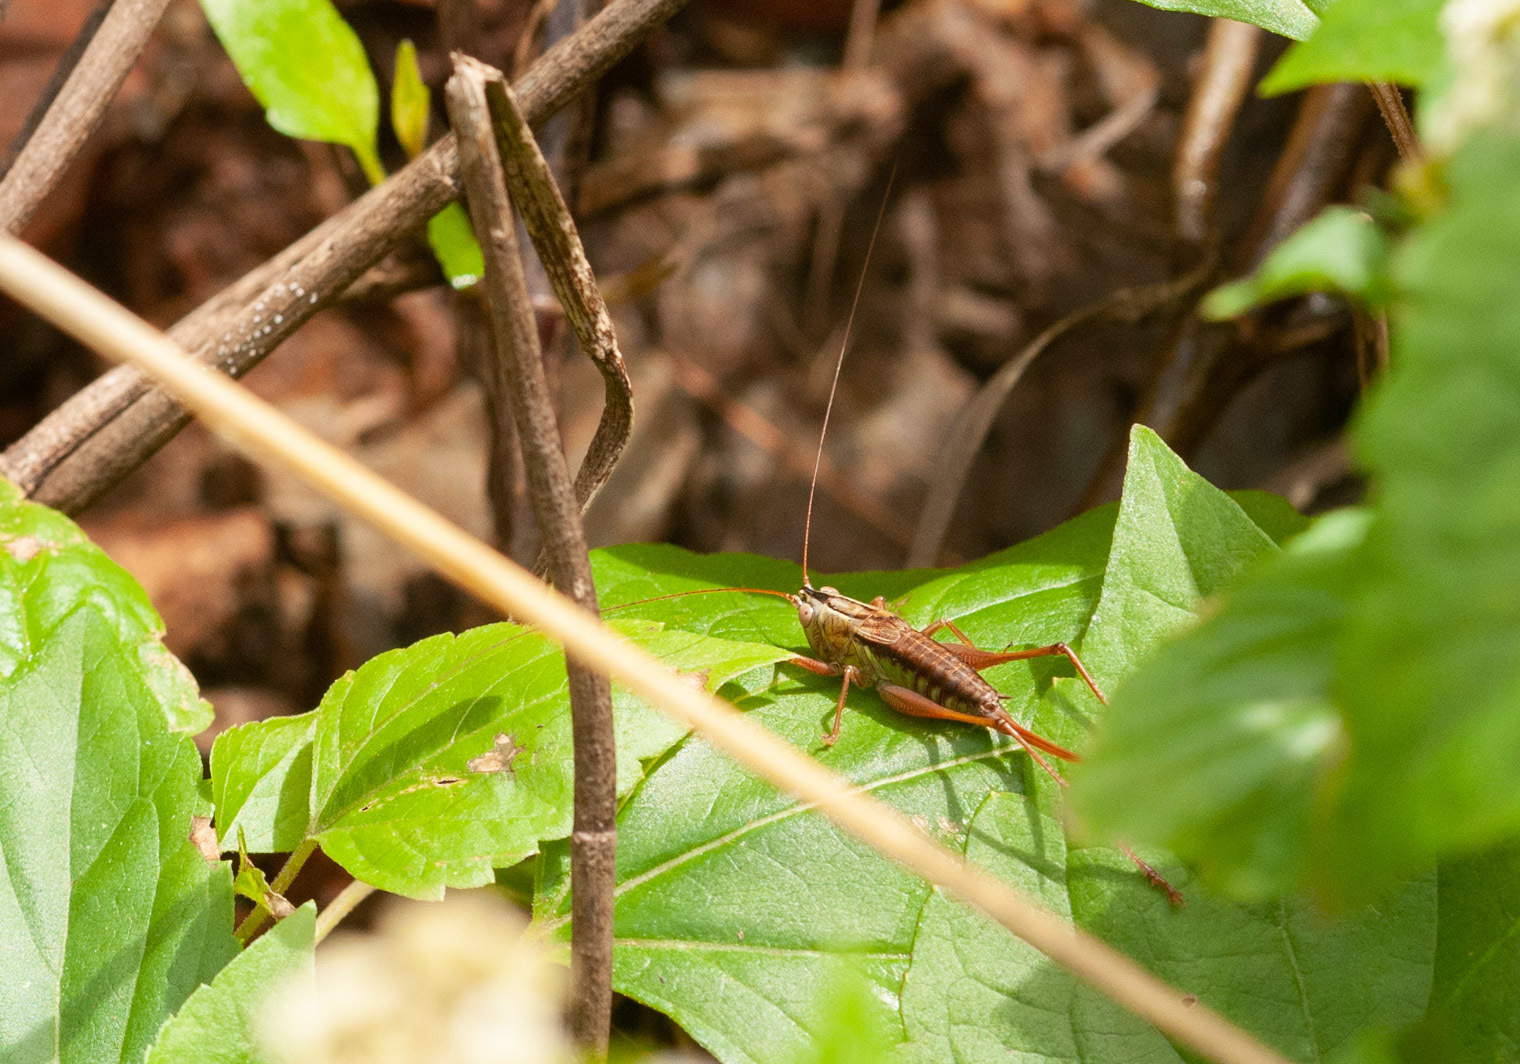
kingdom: Animalia
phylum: Arthropoda
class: Insecta
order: Orthoptera
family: Tettigoniidae
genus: Conocephalus
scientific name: Conocephalus semivittatus
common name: Blackish meadow katydid
